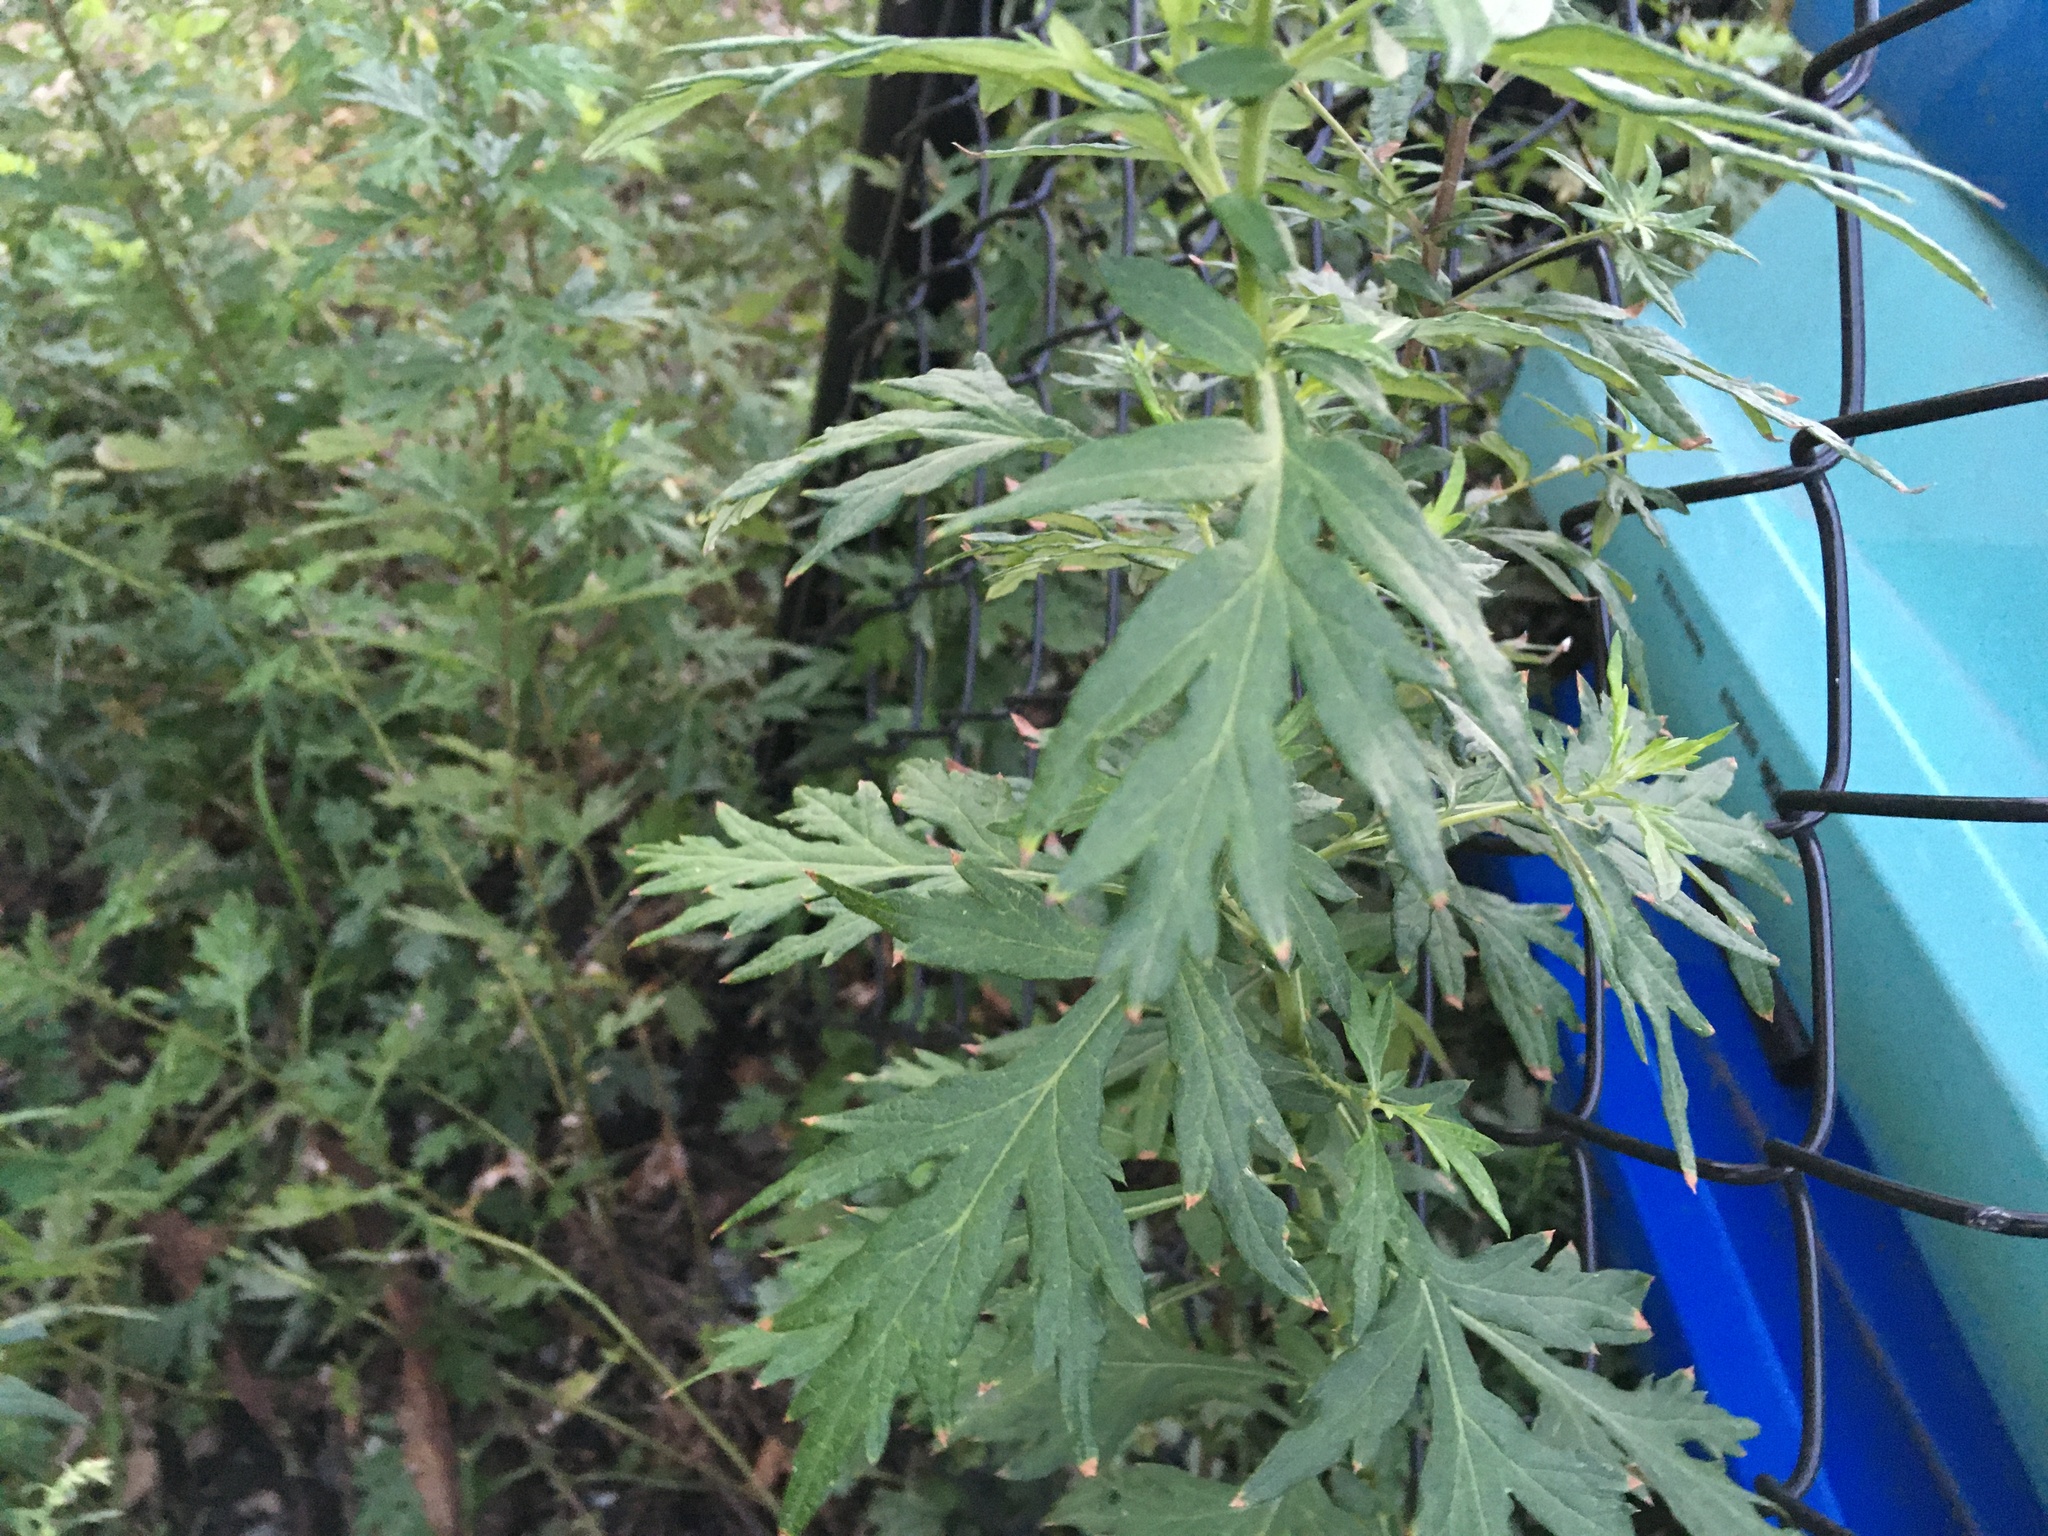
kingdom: Plantae
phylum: Tracheophyta
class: Magnoliopsida
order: Asterales
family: Asteraceae
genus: Artemisia
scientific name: Artemisia vulgaris
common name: Mugwort
